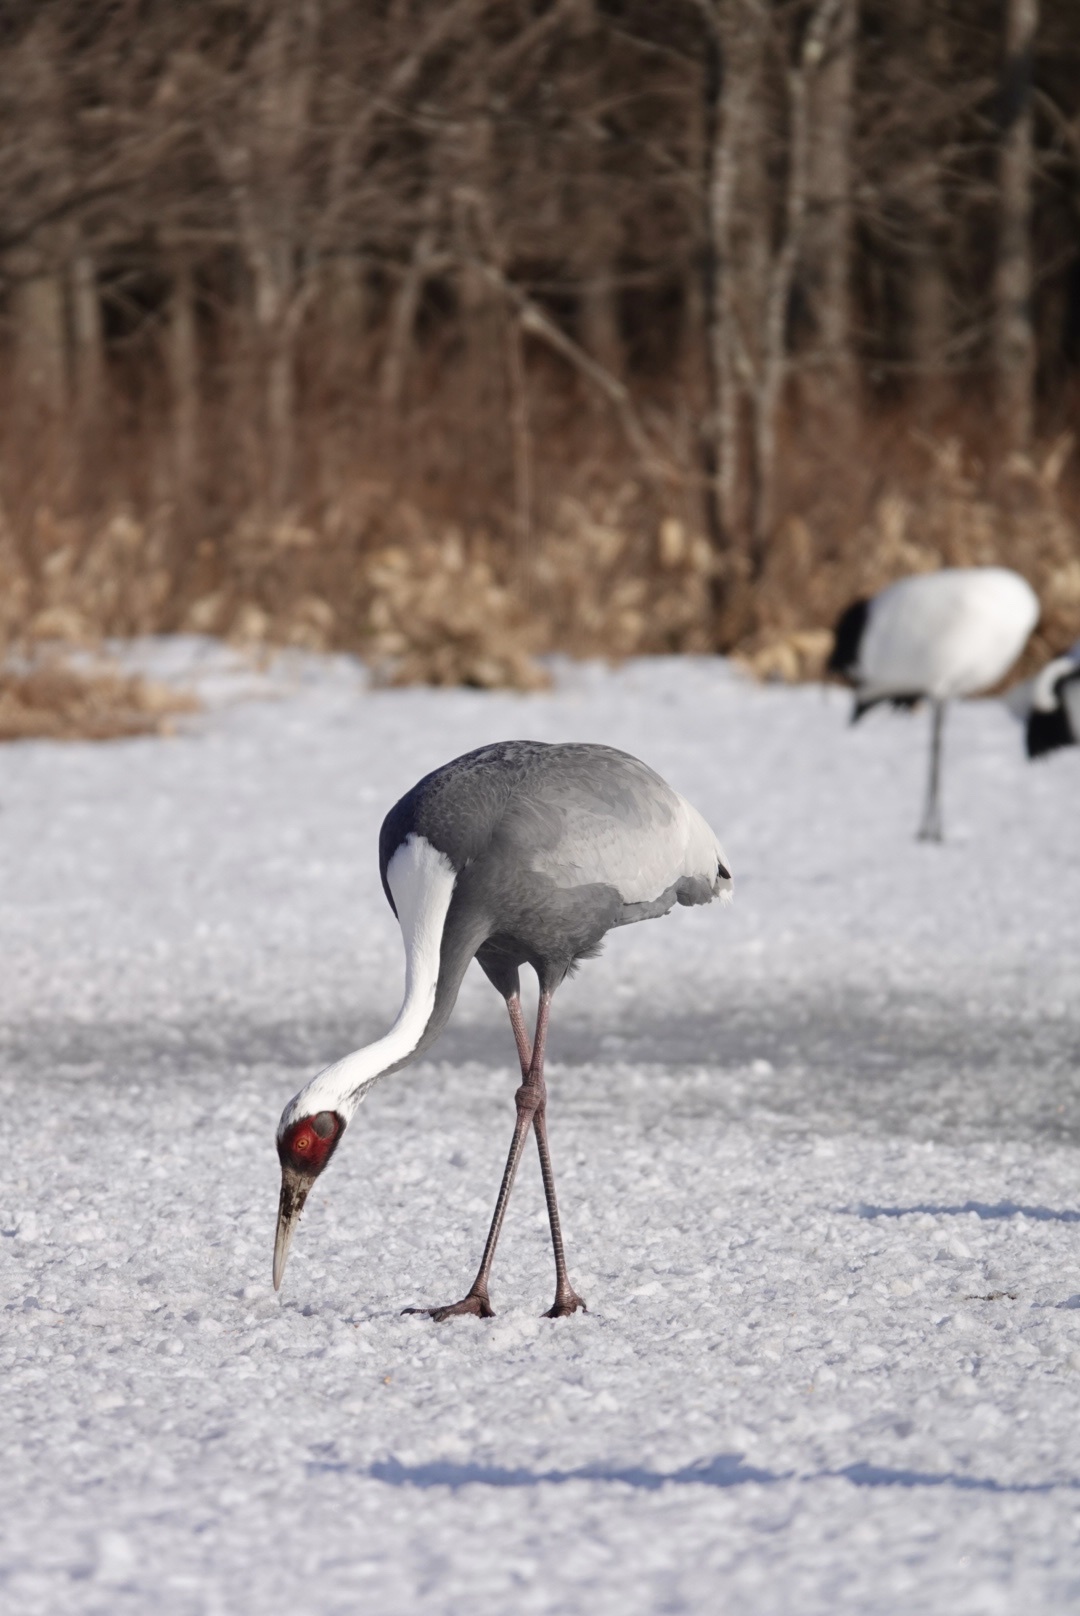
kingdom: Animalia
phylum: Chordata
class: Aves
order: Gruiformes
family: Gruidae
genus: Grus
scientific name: Grus vipio
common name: White-naped crane
